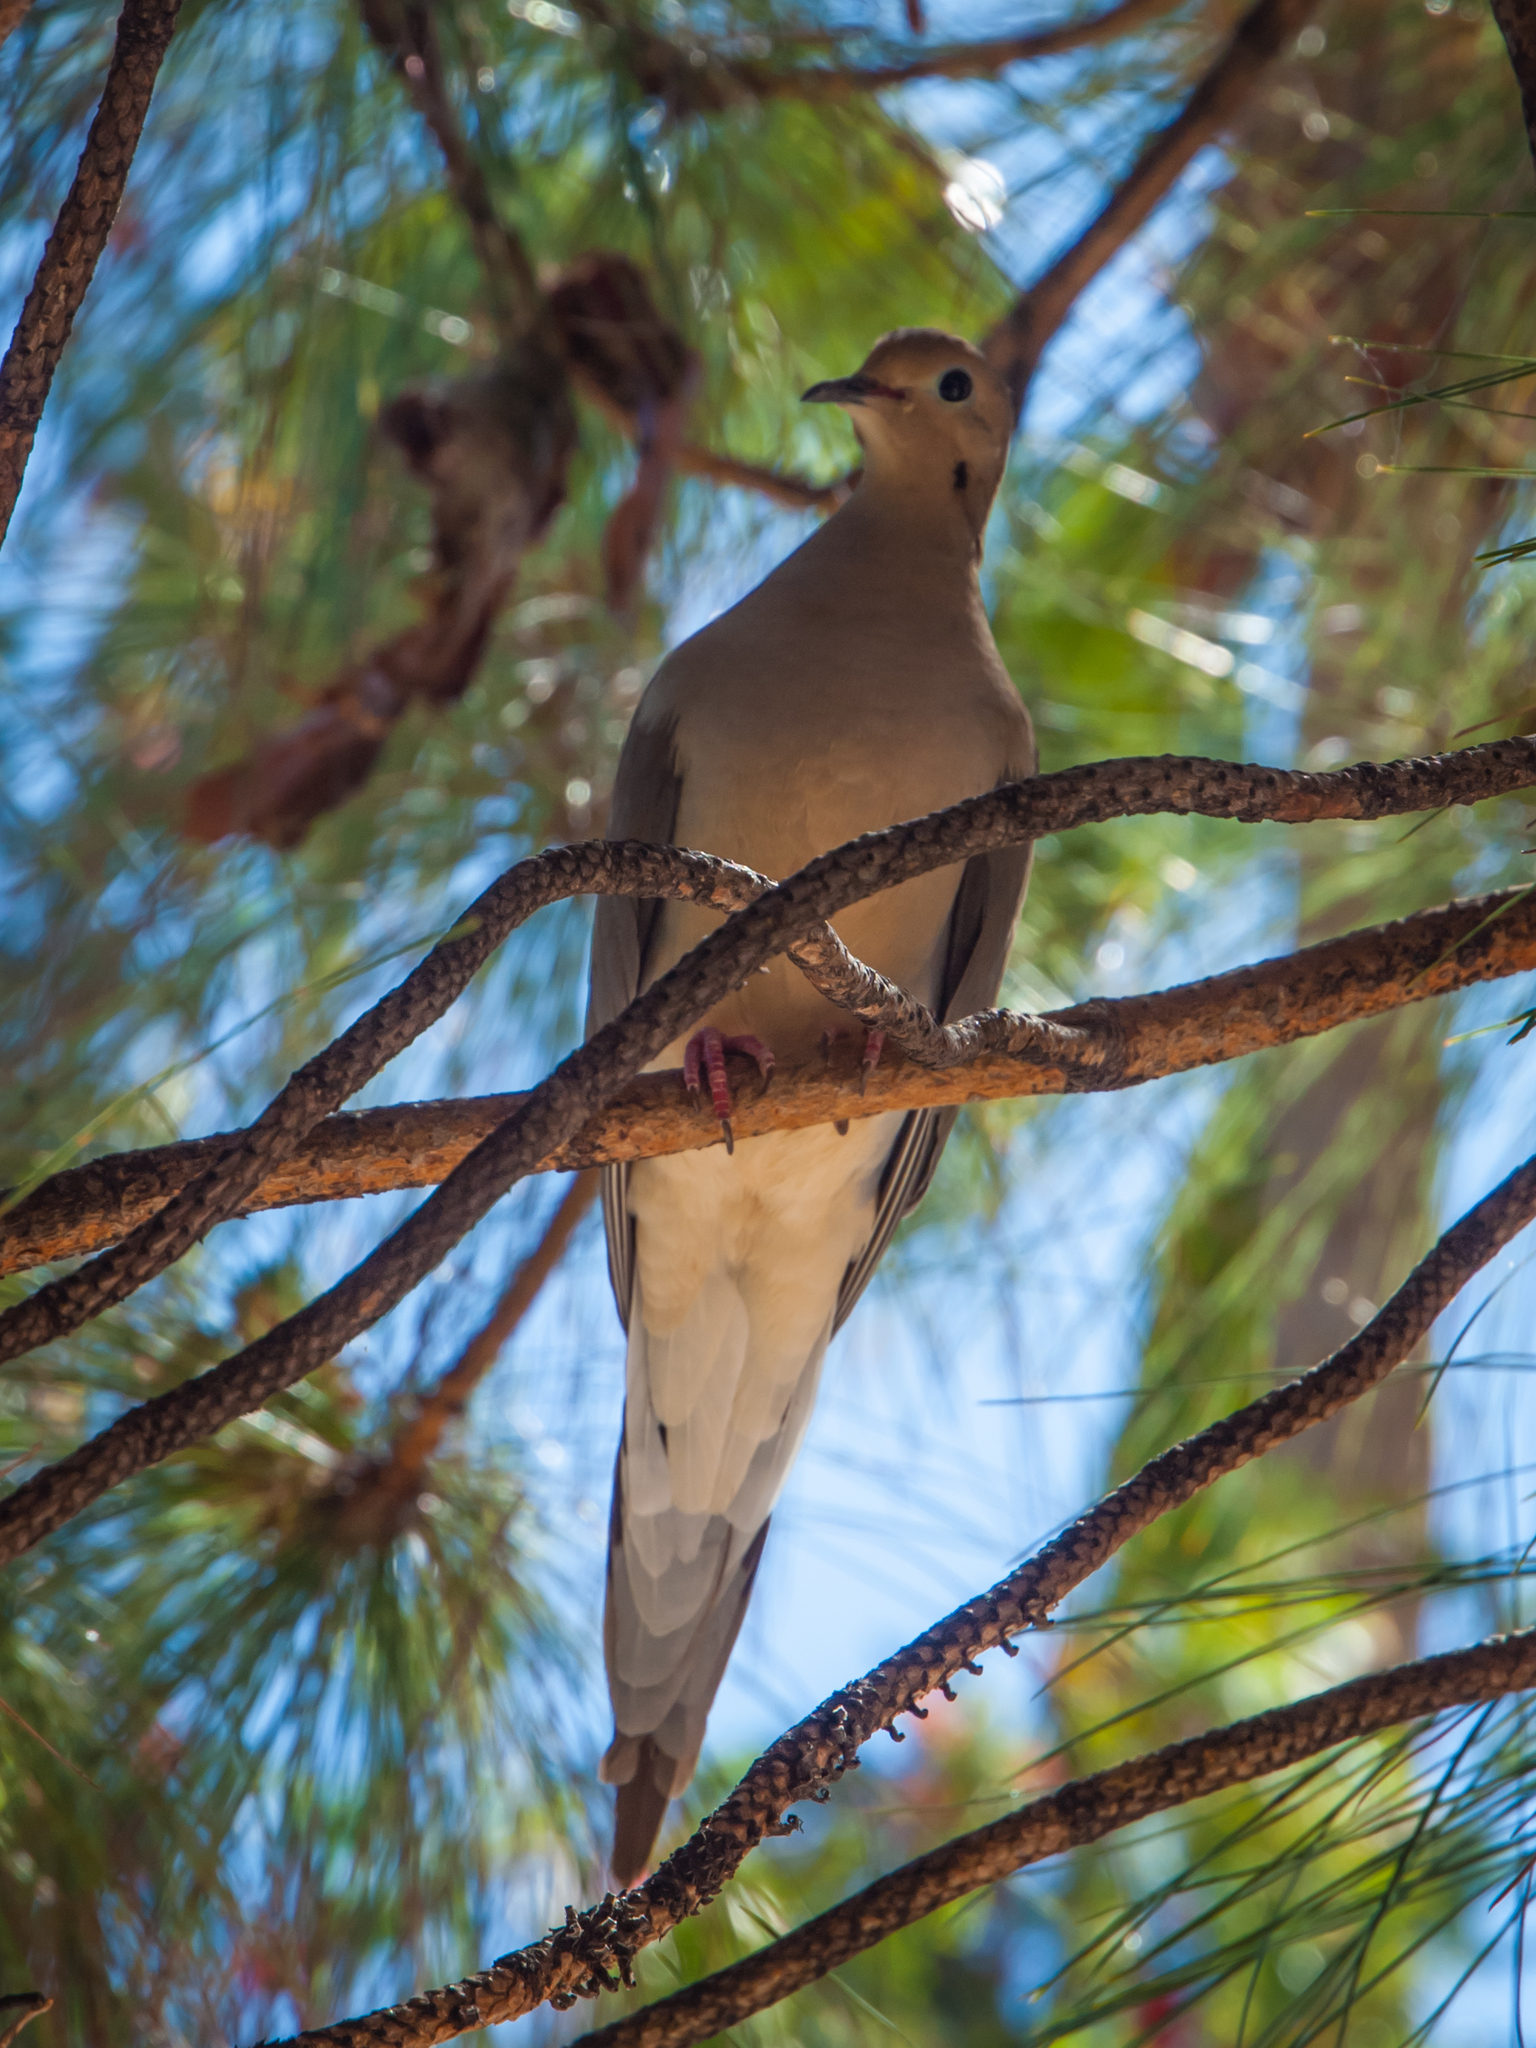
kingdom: Animalia
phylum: Chordata
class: Aves
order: Columbiformes
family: Columbidae
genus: Zenaida
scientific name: Zenaida macroura
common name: Mourning dove
